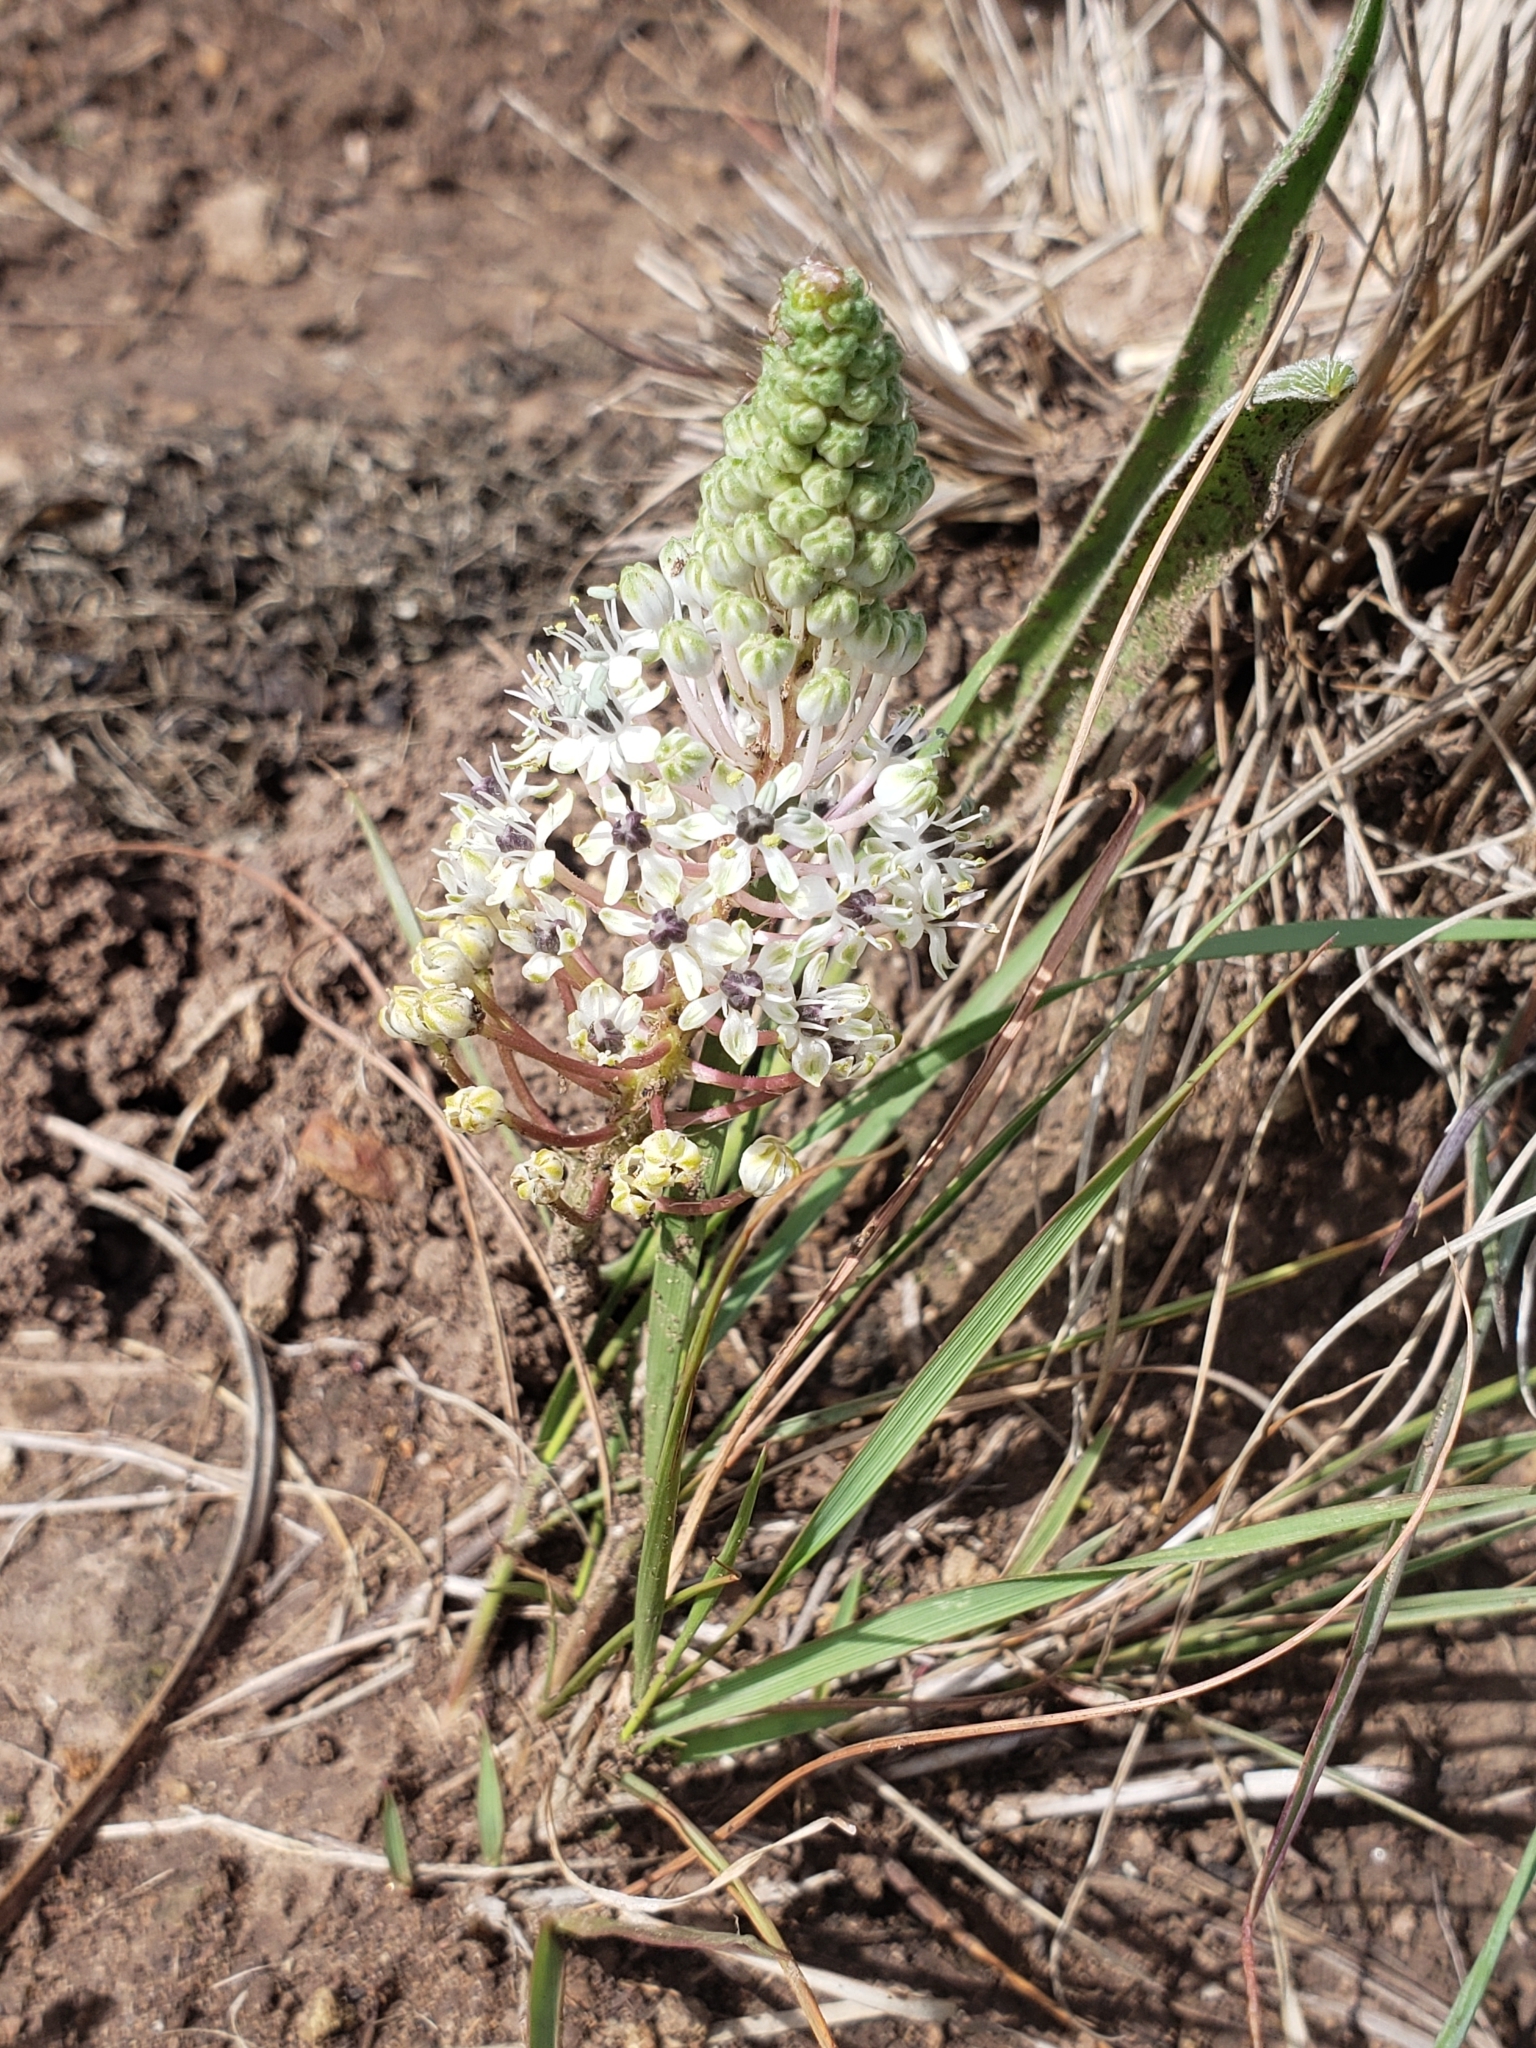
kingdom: Plantae
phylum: Tracheophyta
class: Liliopsida
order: Asparagales
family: Asparagaceae
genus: Schizocarphus
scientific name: Schizocarphus nervosus
